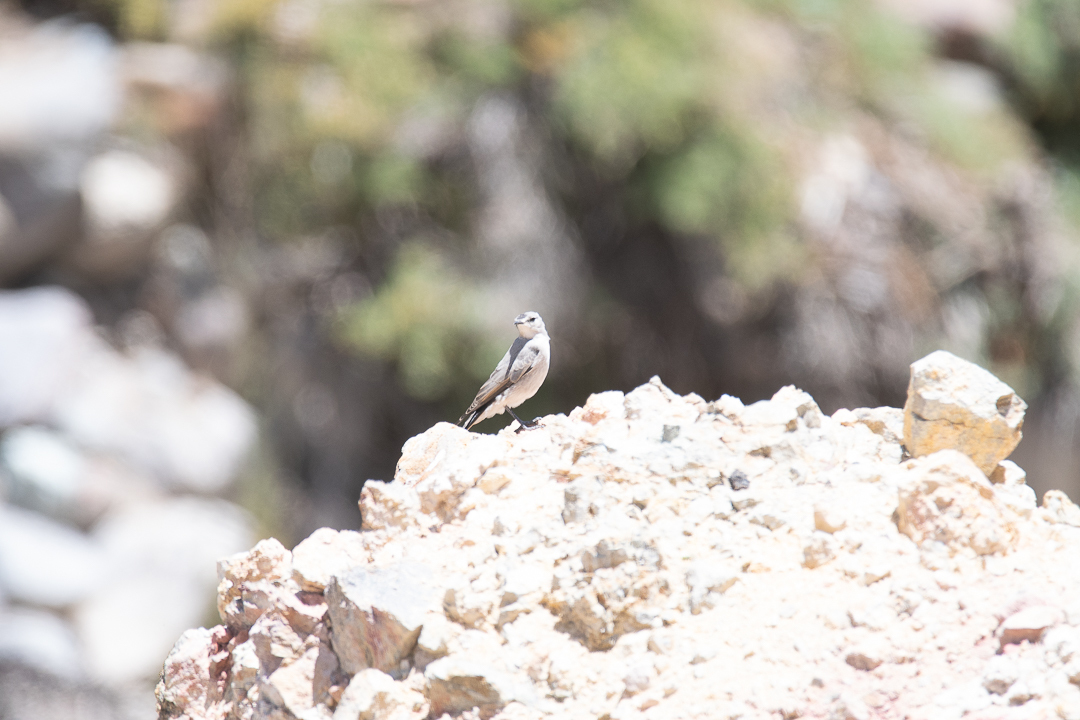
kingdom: Animalia
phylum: Chordata
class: Aves
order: Passeriformes
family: Tyrannidae
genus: Muscisaxicola
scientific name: Muscisaxicola frontalis
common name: Black-fronted ground tyrant
